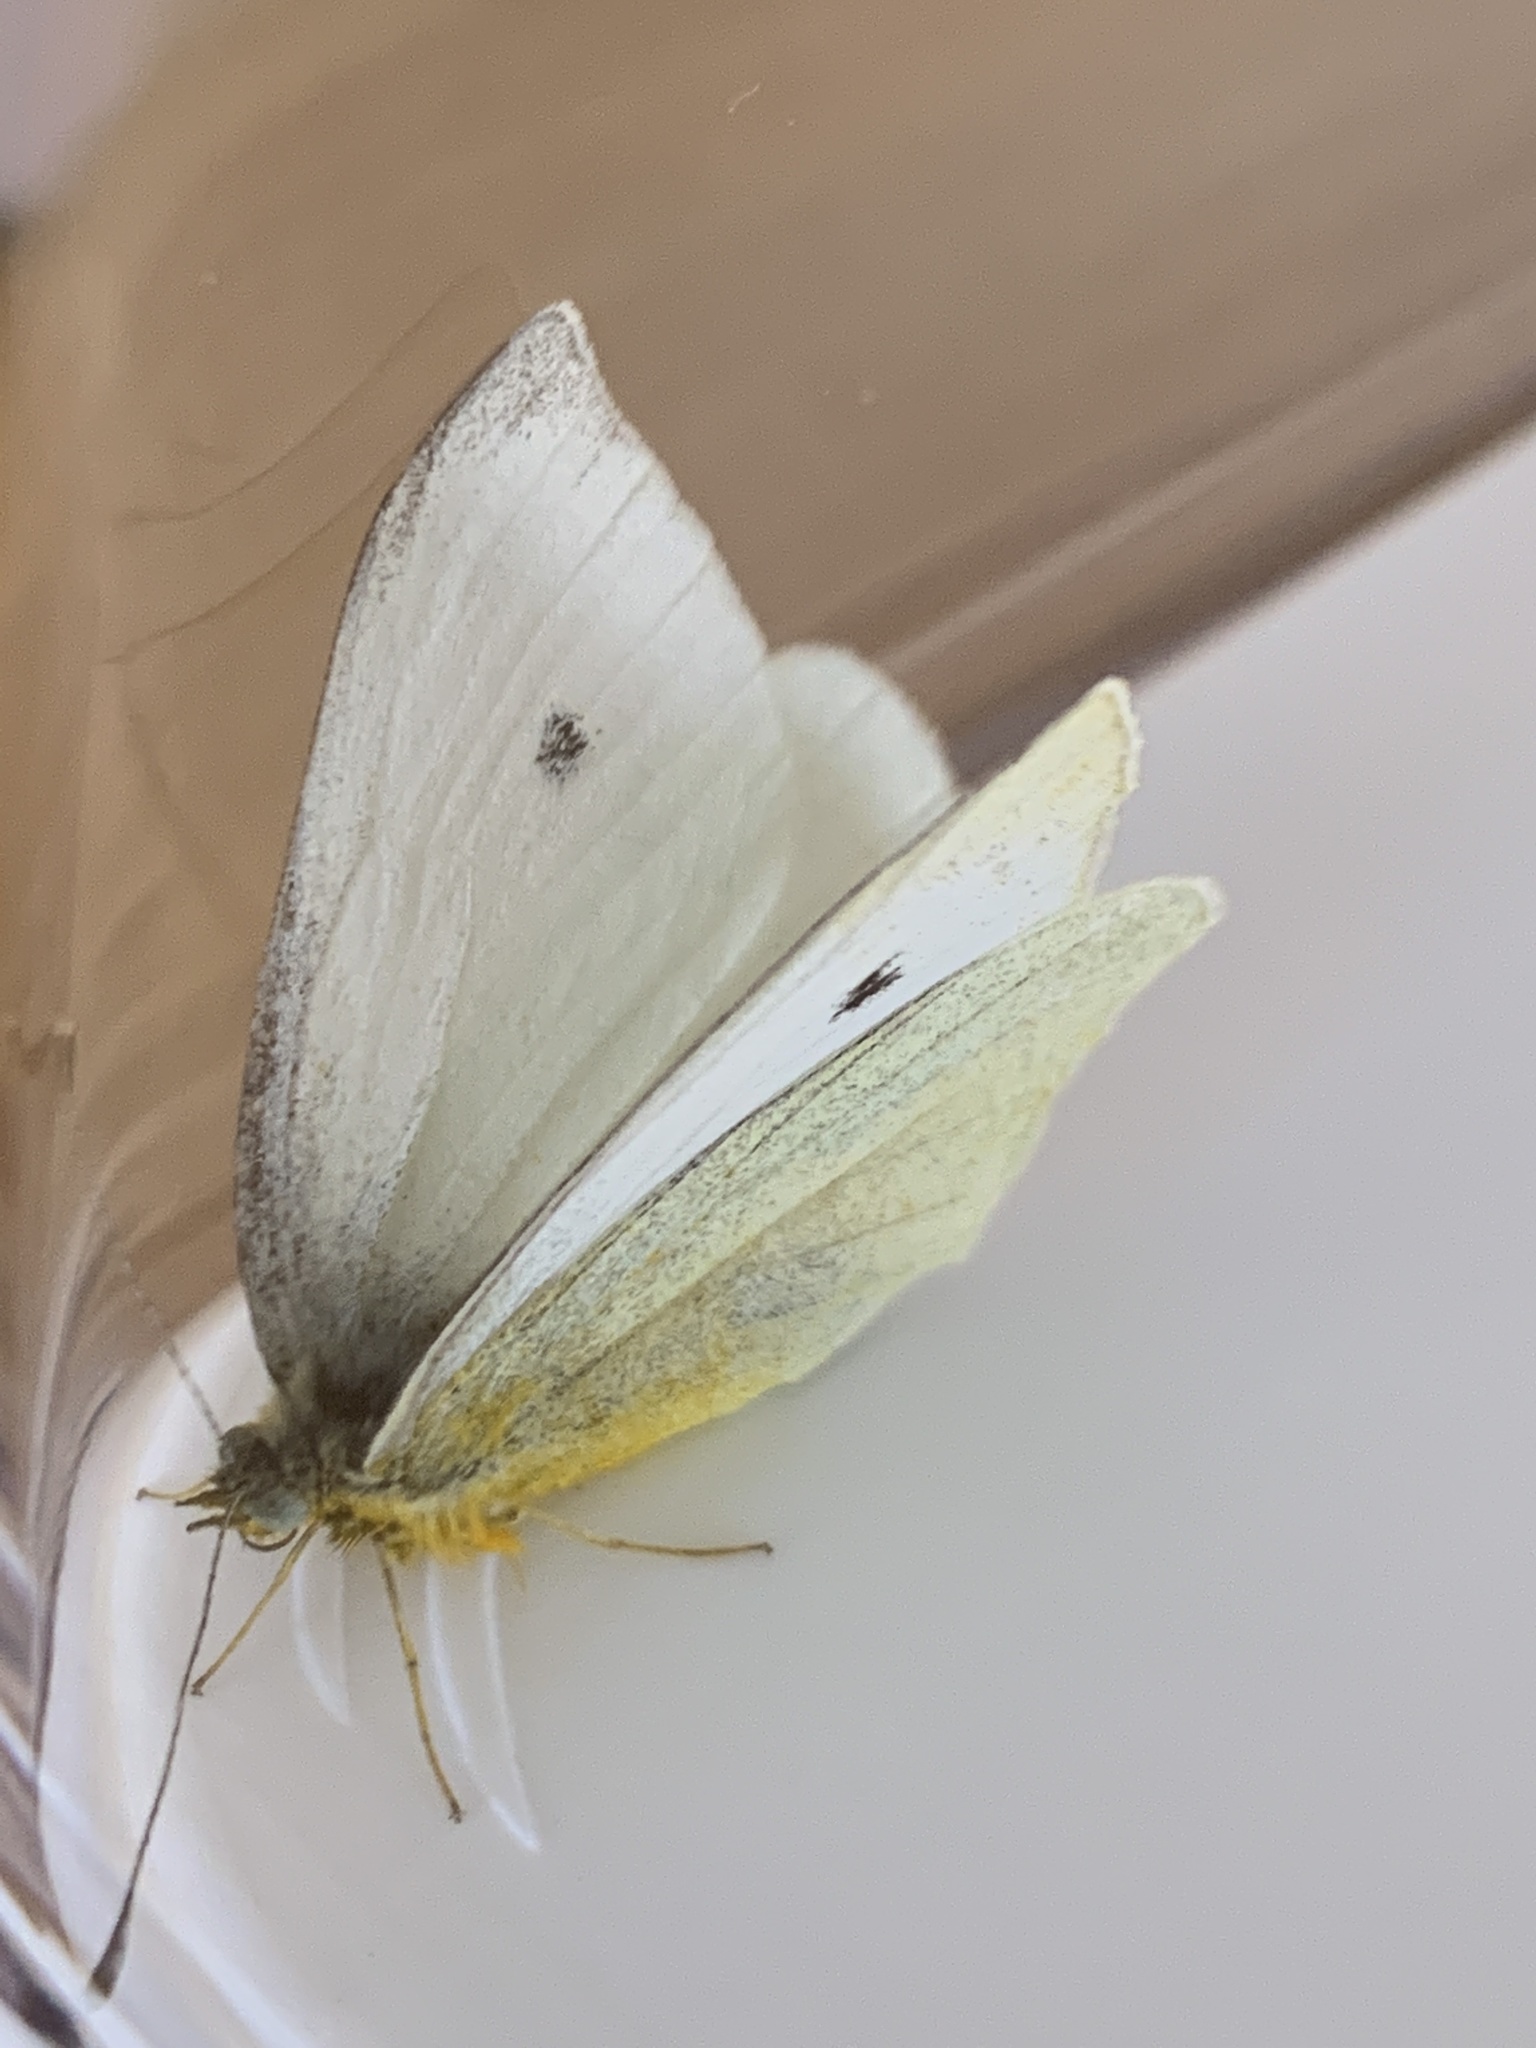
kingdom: Animalia
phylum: Arthropoda
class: Insecta
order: Lepidoptera
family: Pieridae
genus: Pieris
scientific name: Pieris rapae
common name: Small white
